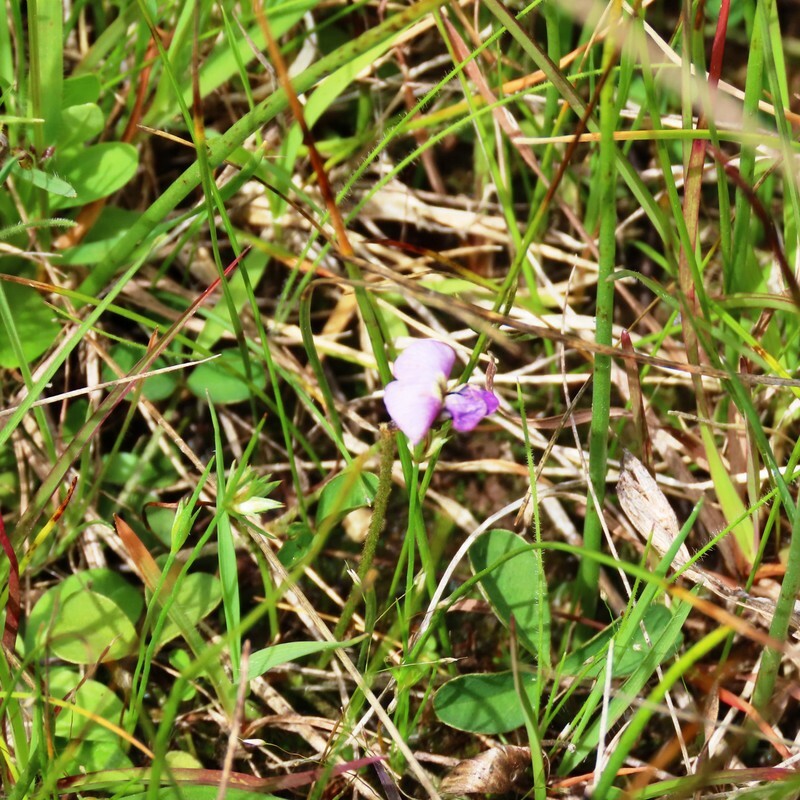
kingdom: Plantae
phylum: Tracheophyta
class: Magnoliopsida
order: Fabales
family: Fabaceae
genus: Glycine
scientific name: Glycine latrobeana
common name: Clover glycine
